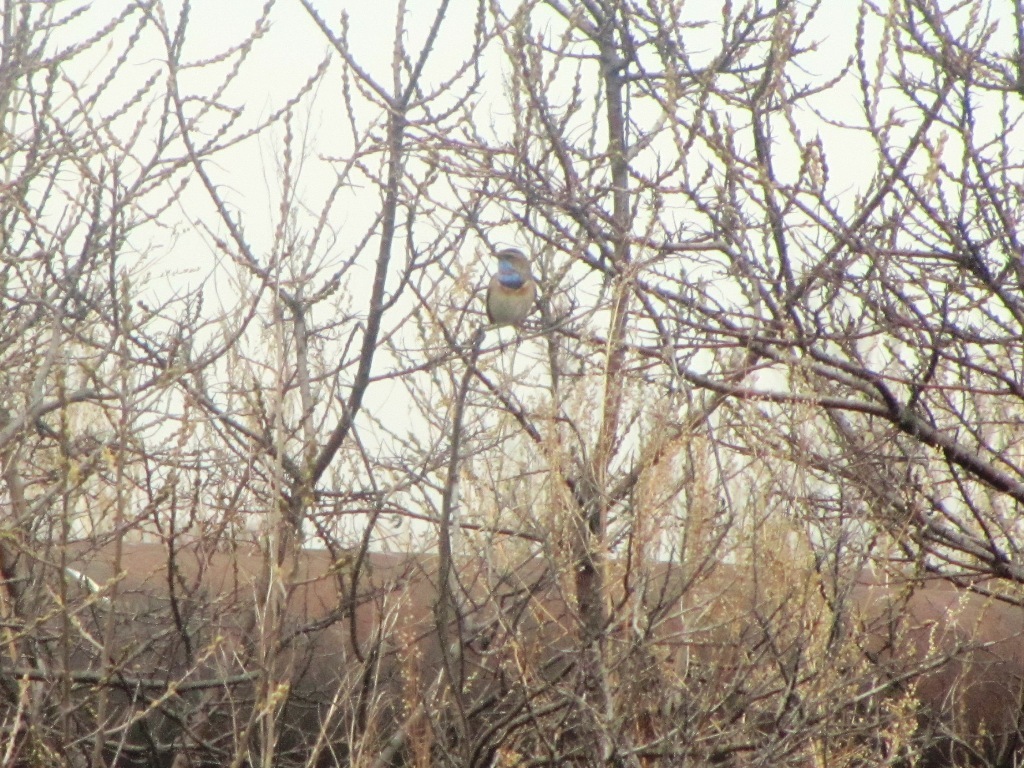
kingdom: Animalia
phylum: Chordata
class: Aves
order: Passeriformes
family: Muscicapidae
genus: Luscinia
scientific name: Luscinia svecica
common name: Bluethroat
